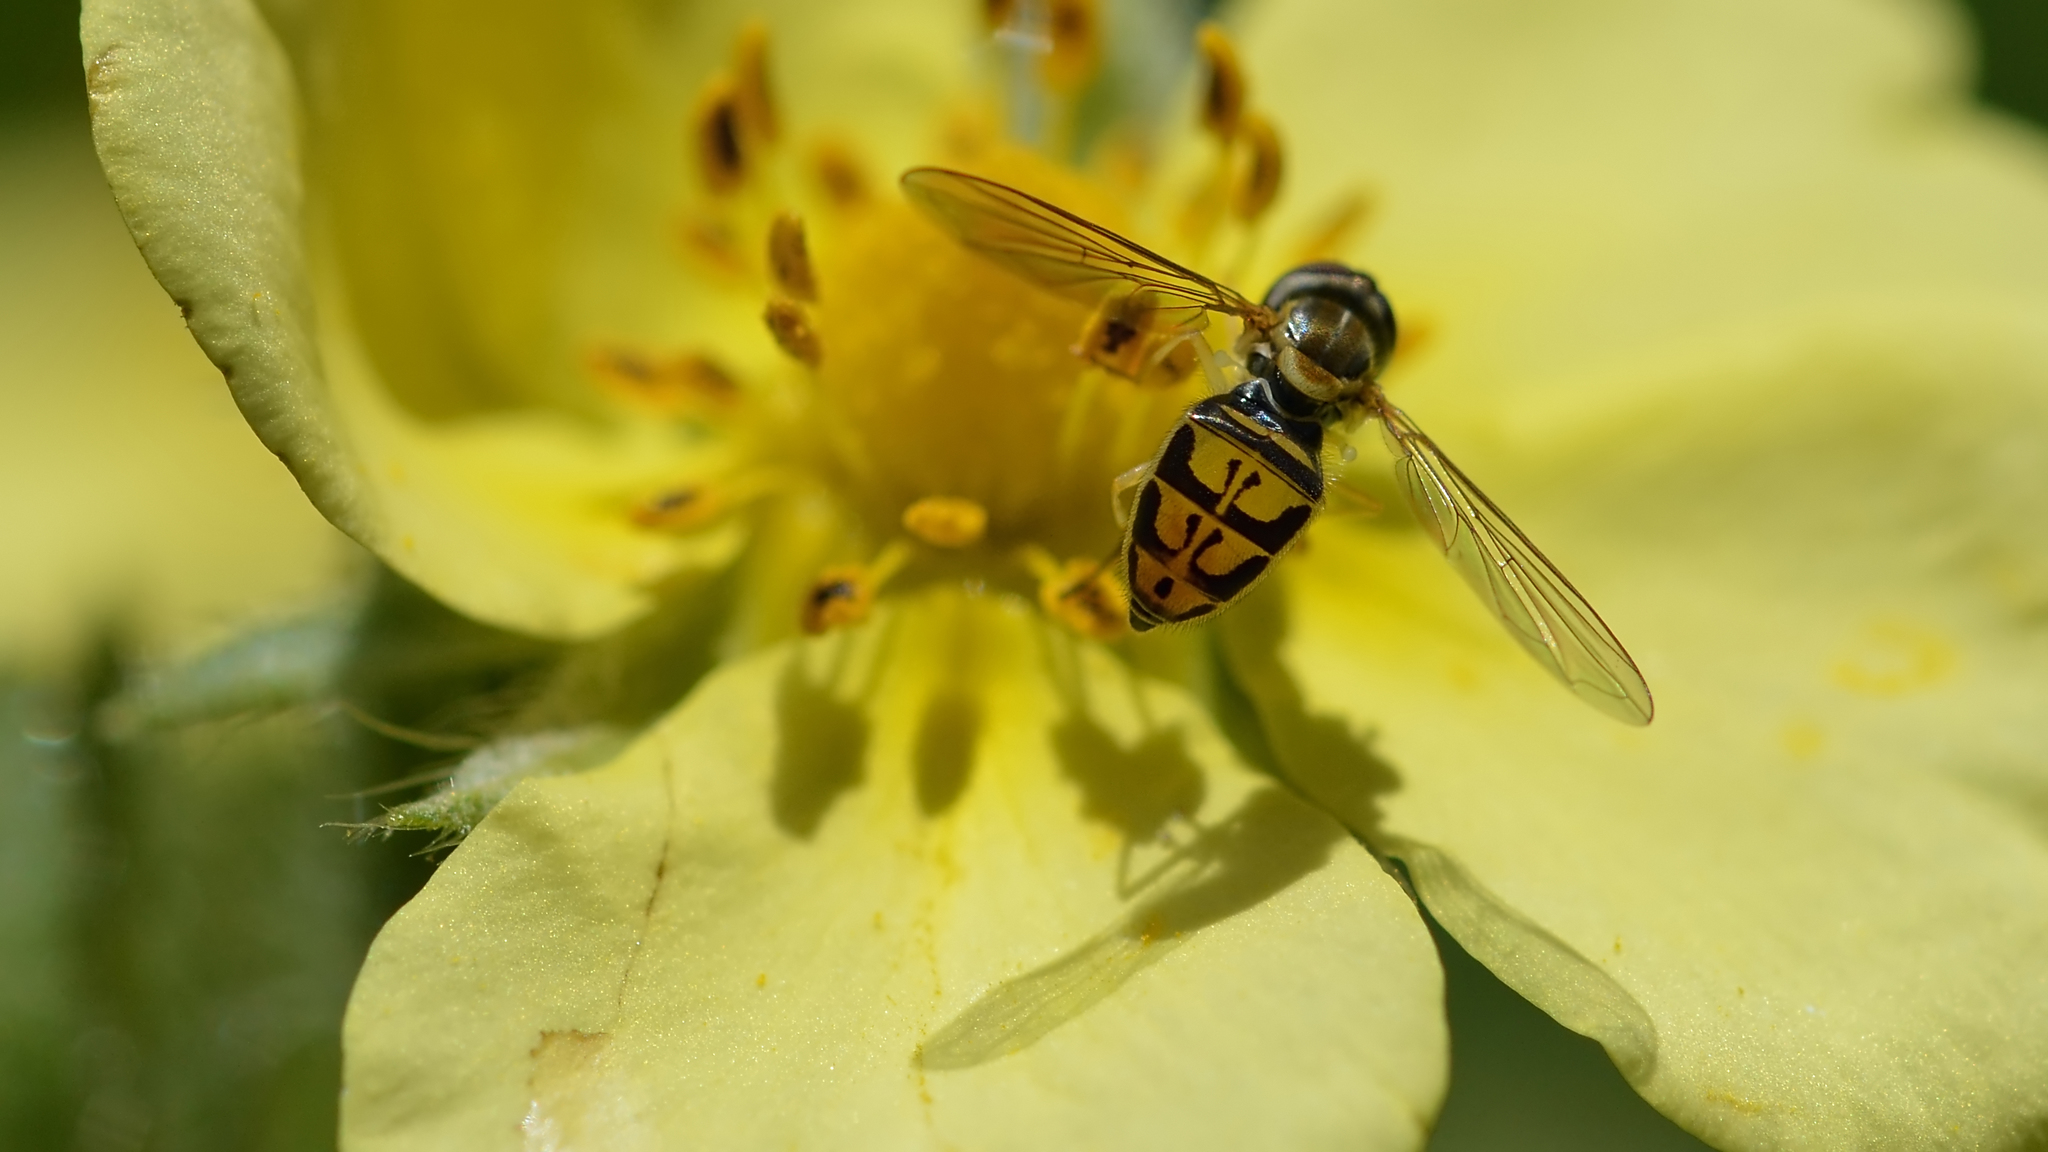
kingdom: Animalia
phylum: Arthropoda
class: Insecta
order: Diptera
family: Syrphidae
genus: Toxomerus
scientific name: Toxomerus marginatus
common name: Syrphid fly
